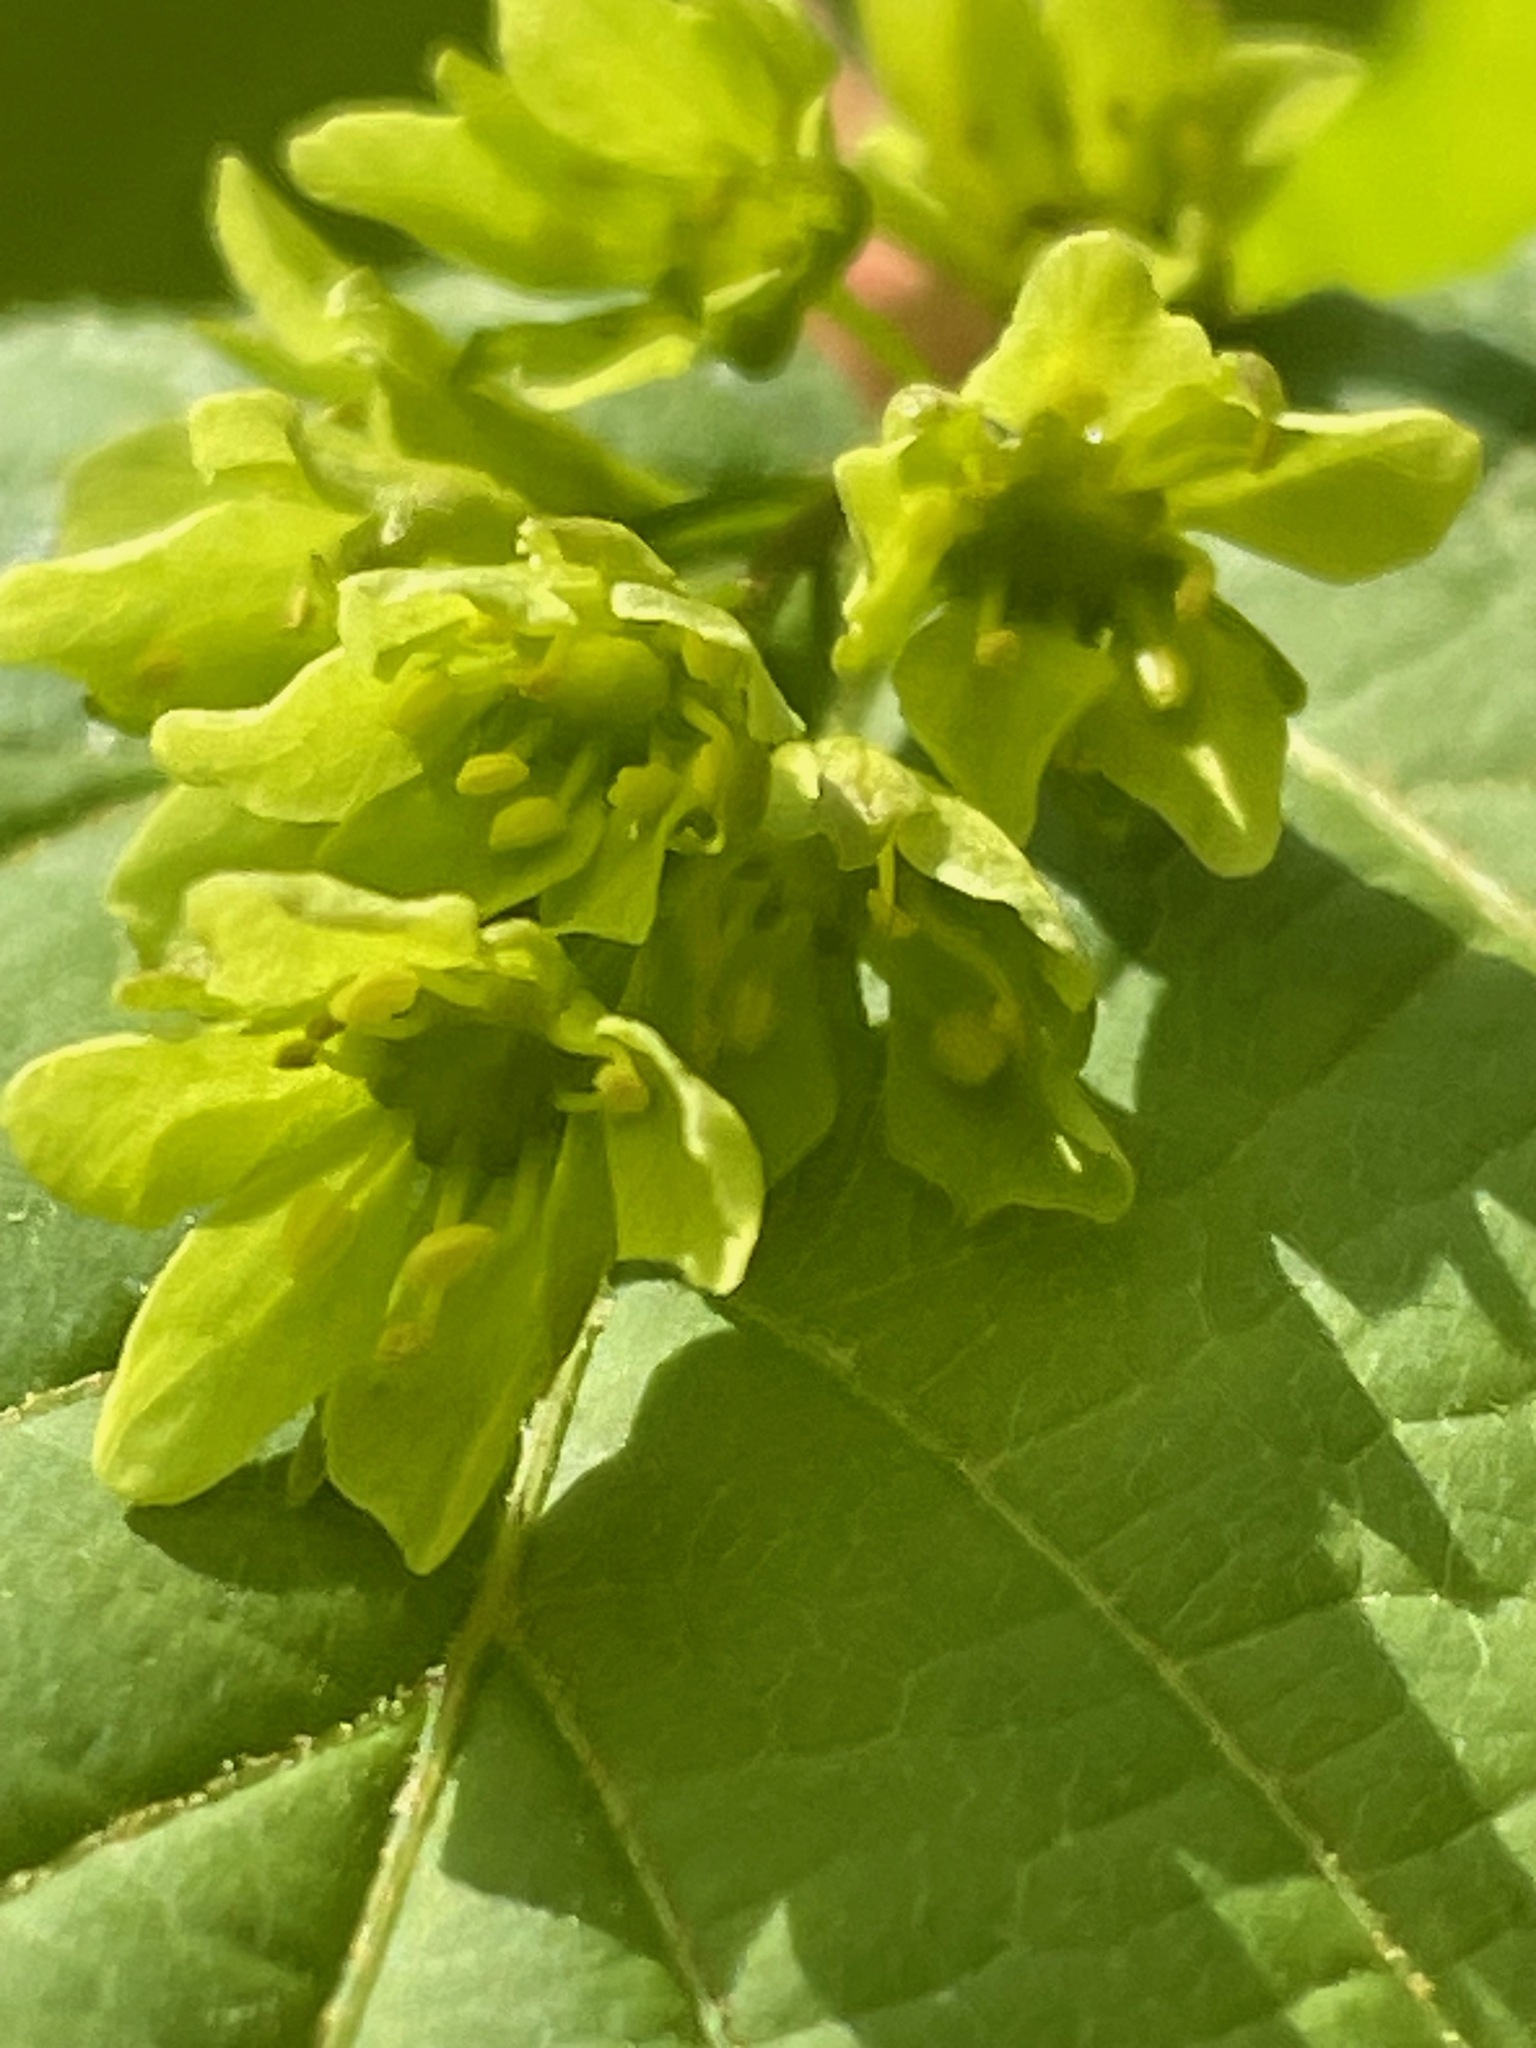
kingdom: Plantae
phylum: Tracheophyta
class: Magnoliopsida
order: Sapindales
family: Sapindaceae
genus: Acer
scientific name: Acer pensylvanicum
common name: Moosewood
